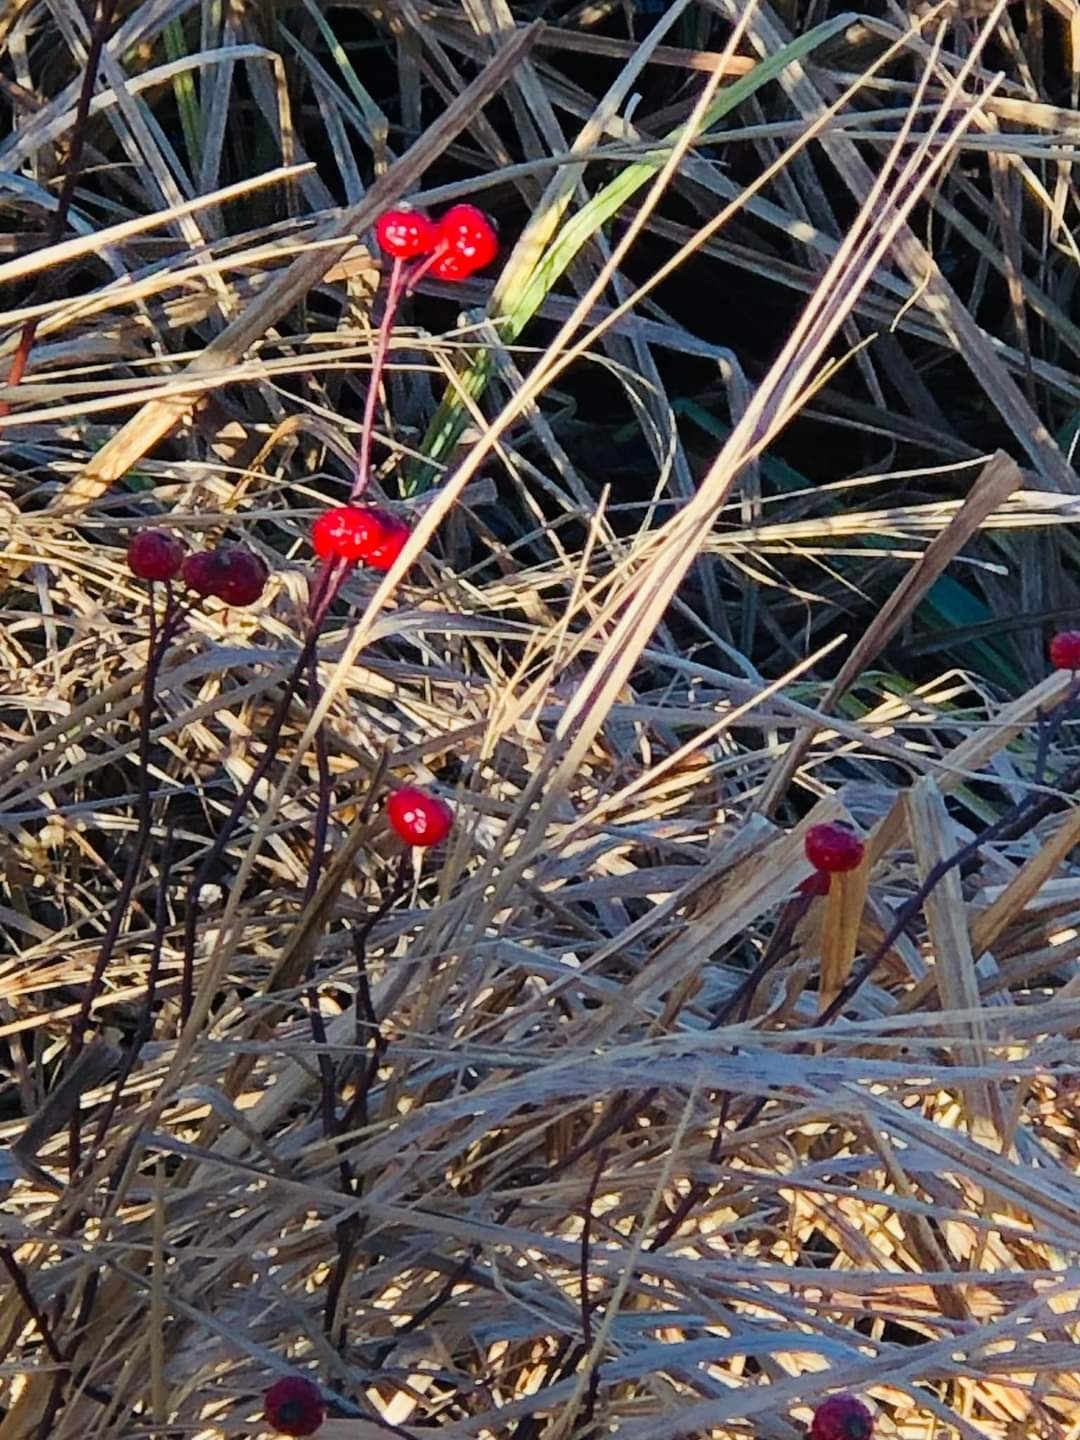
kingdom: Plantae
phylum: Tracheophyta
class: Magnoliopsida
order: Rosales
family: Rosaceae
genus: Rosa
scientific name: Rosa palustris
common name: Swamp rose
